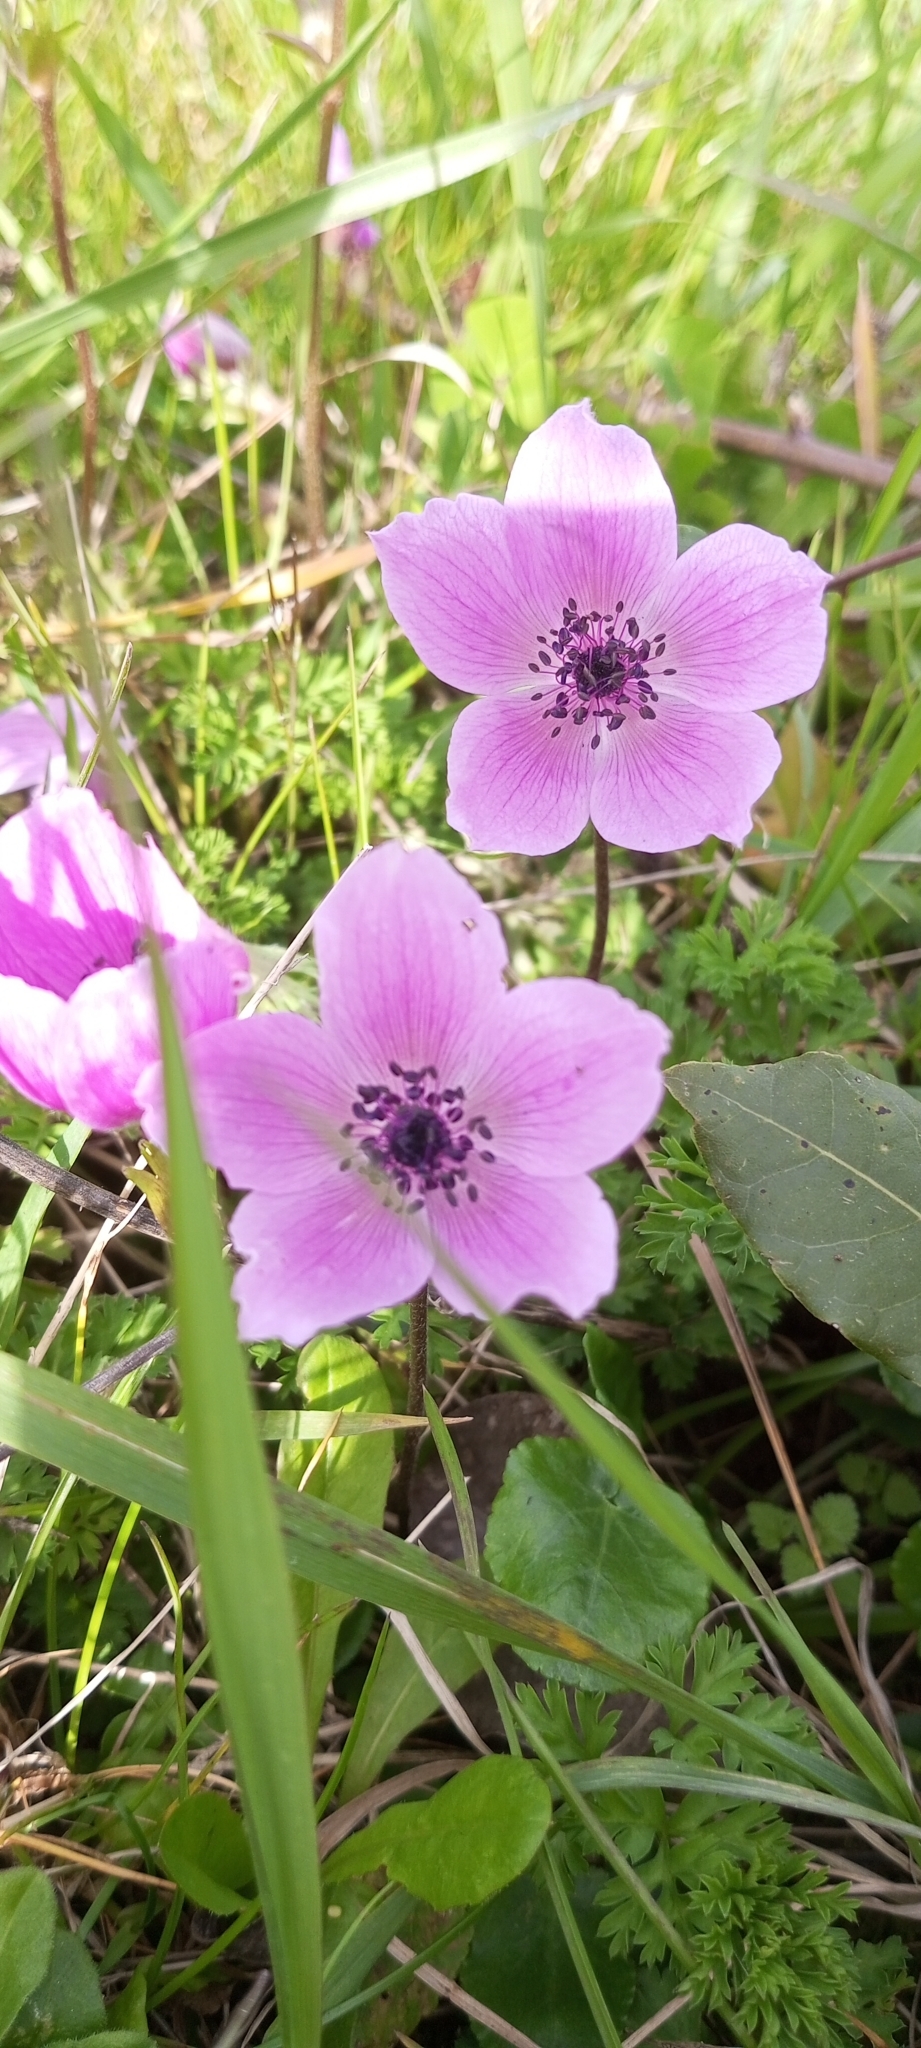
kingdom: Plantae
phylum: Tracheophyta
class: Magnoliopsida
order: Ranunculales
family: Ranunculaceae
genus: Anemone
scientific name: Anemone coronaria
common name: Poppy anemone
